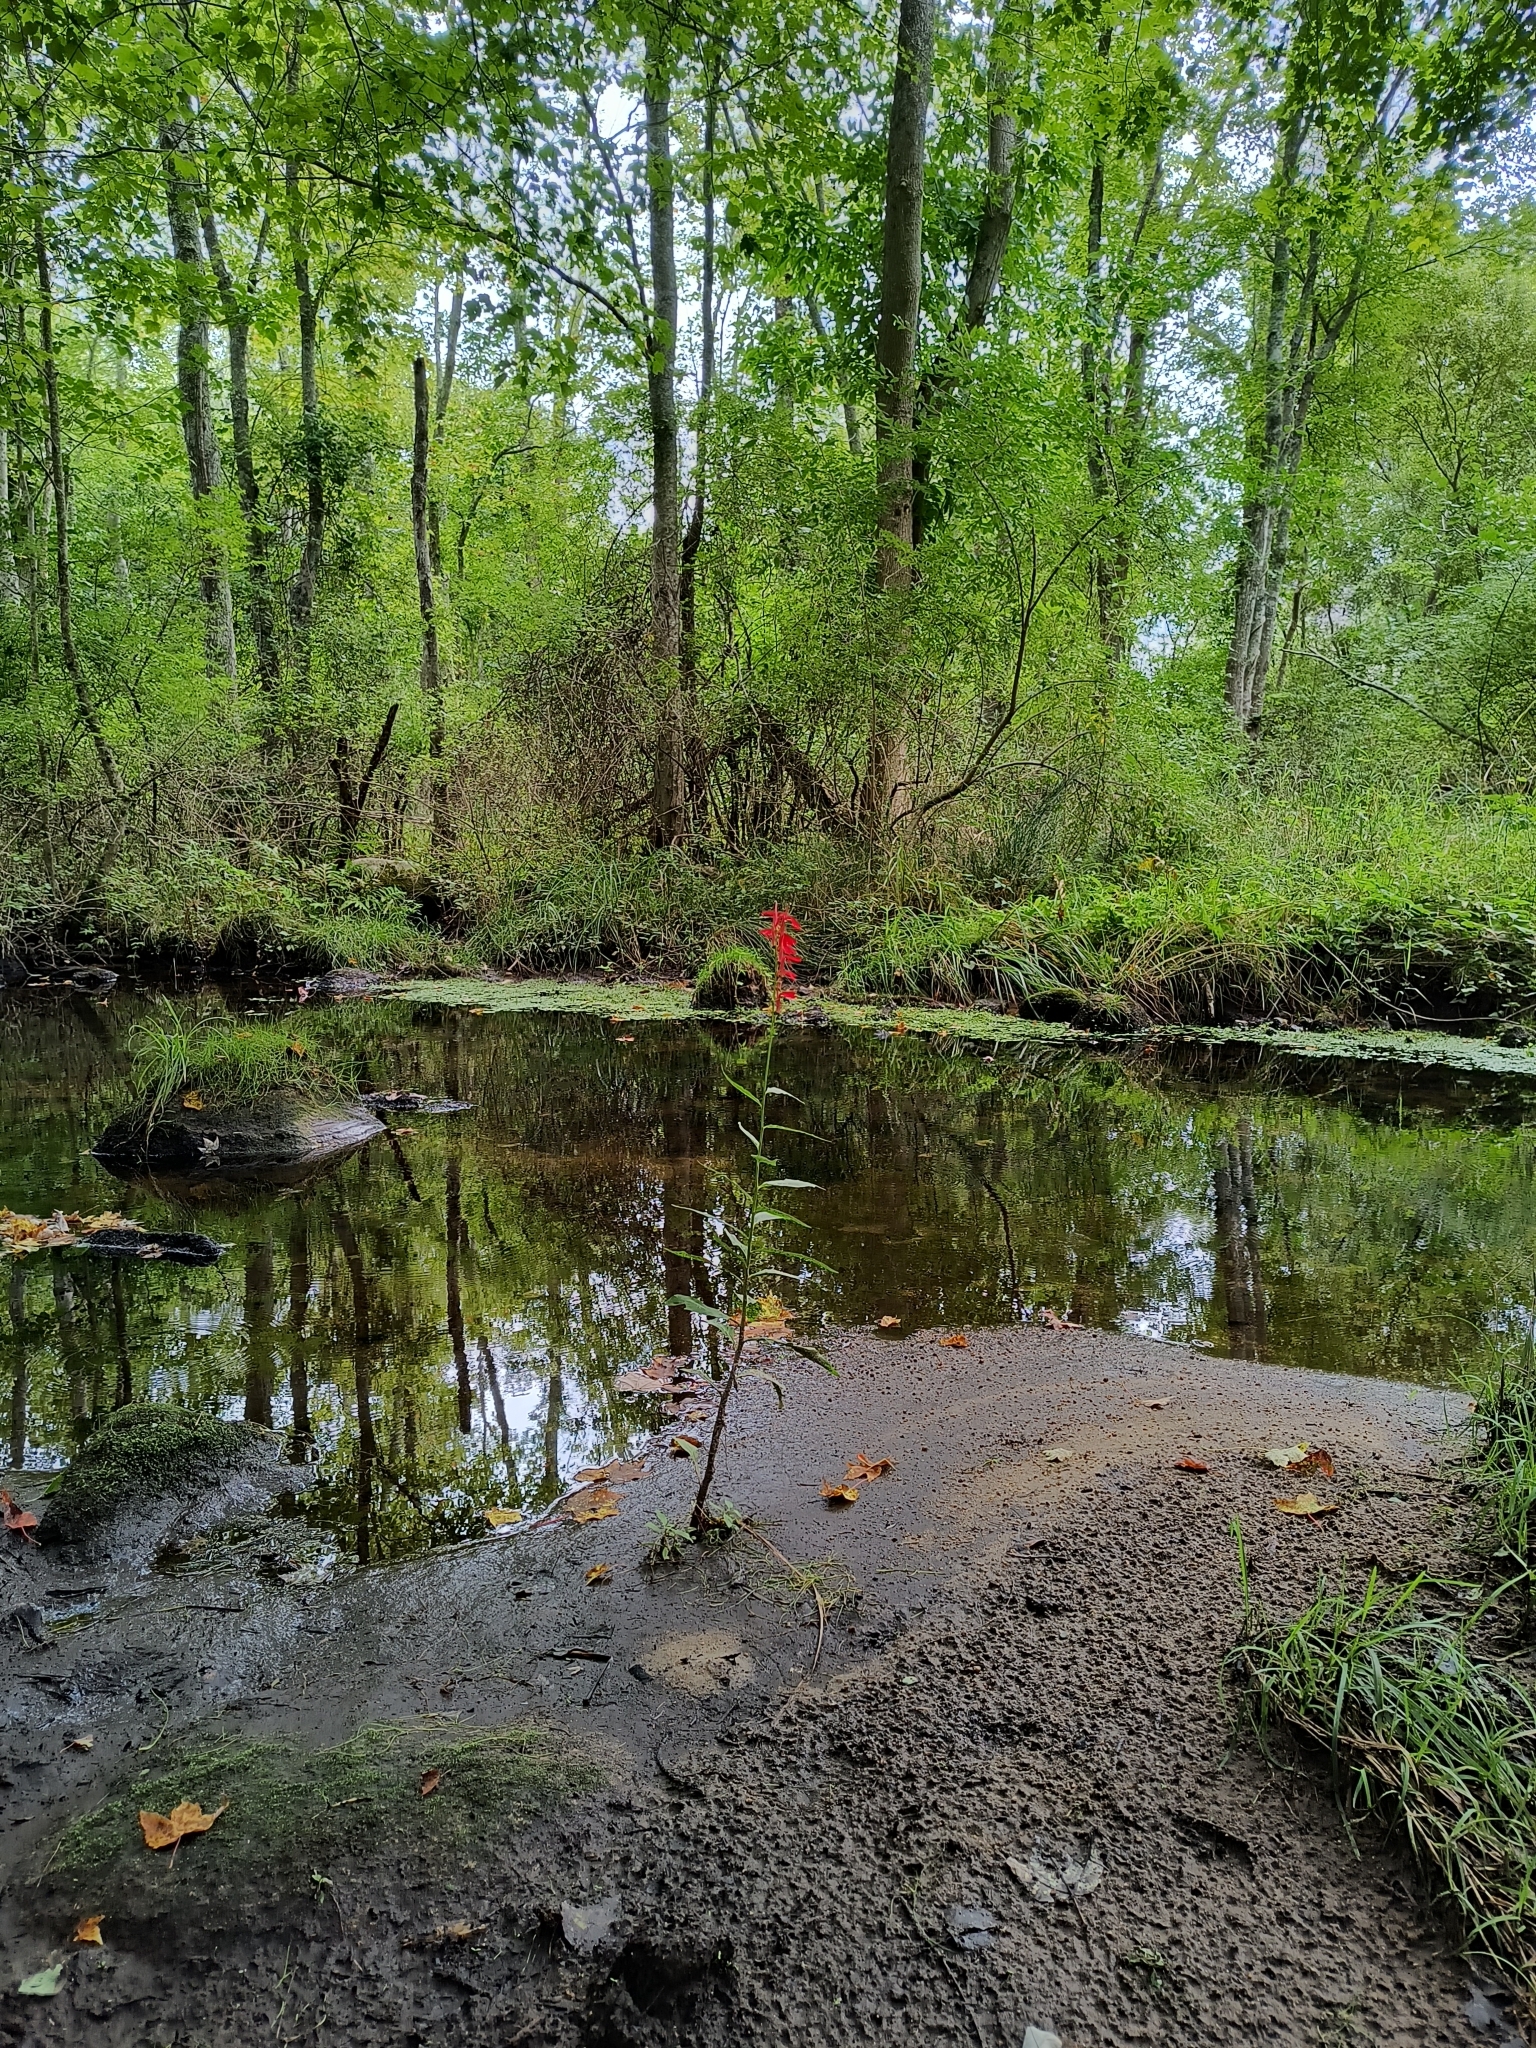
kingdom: Plantae
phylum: Tracheophyta
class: Magnoliopsida
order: Asterales
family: Campanulaceae
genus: Lobelia
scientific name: Lobelia cardinalis
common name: Cardinal flower
